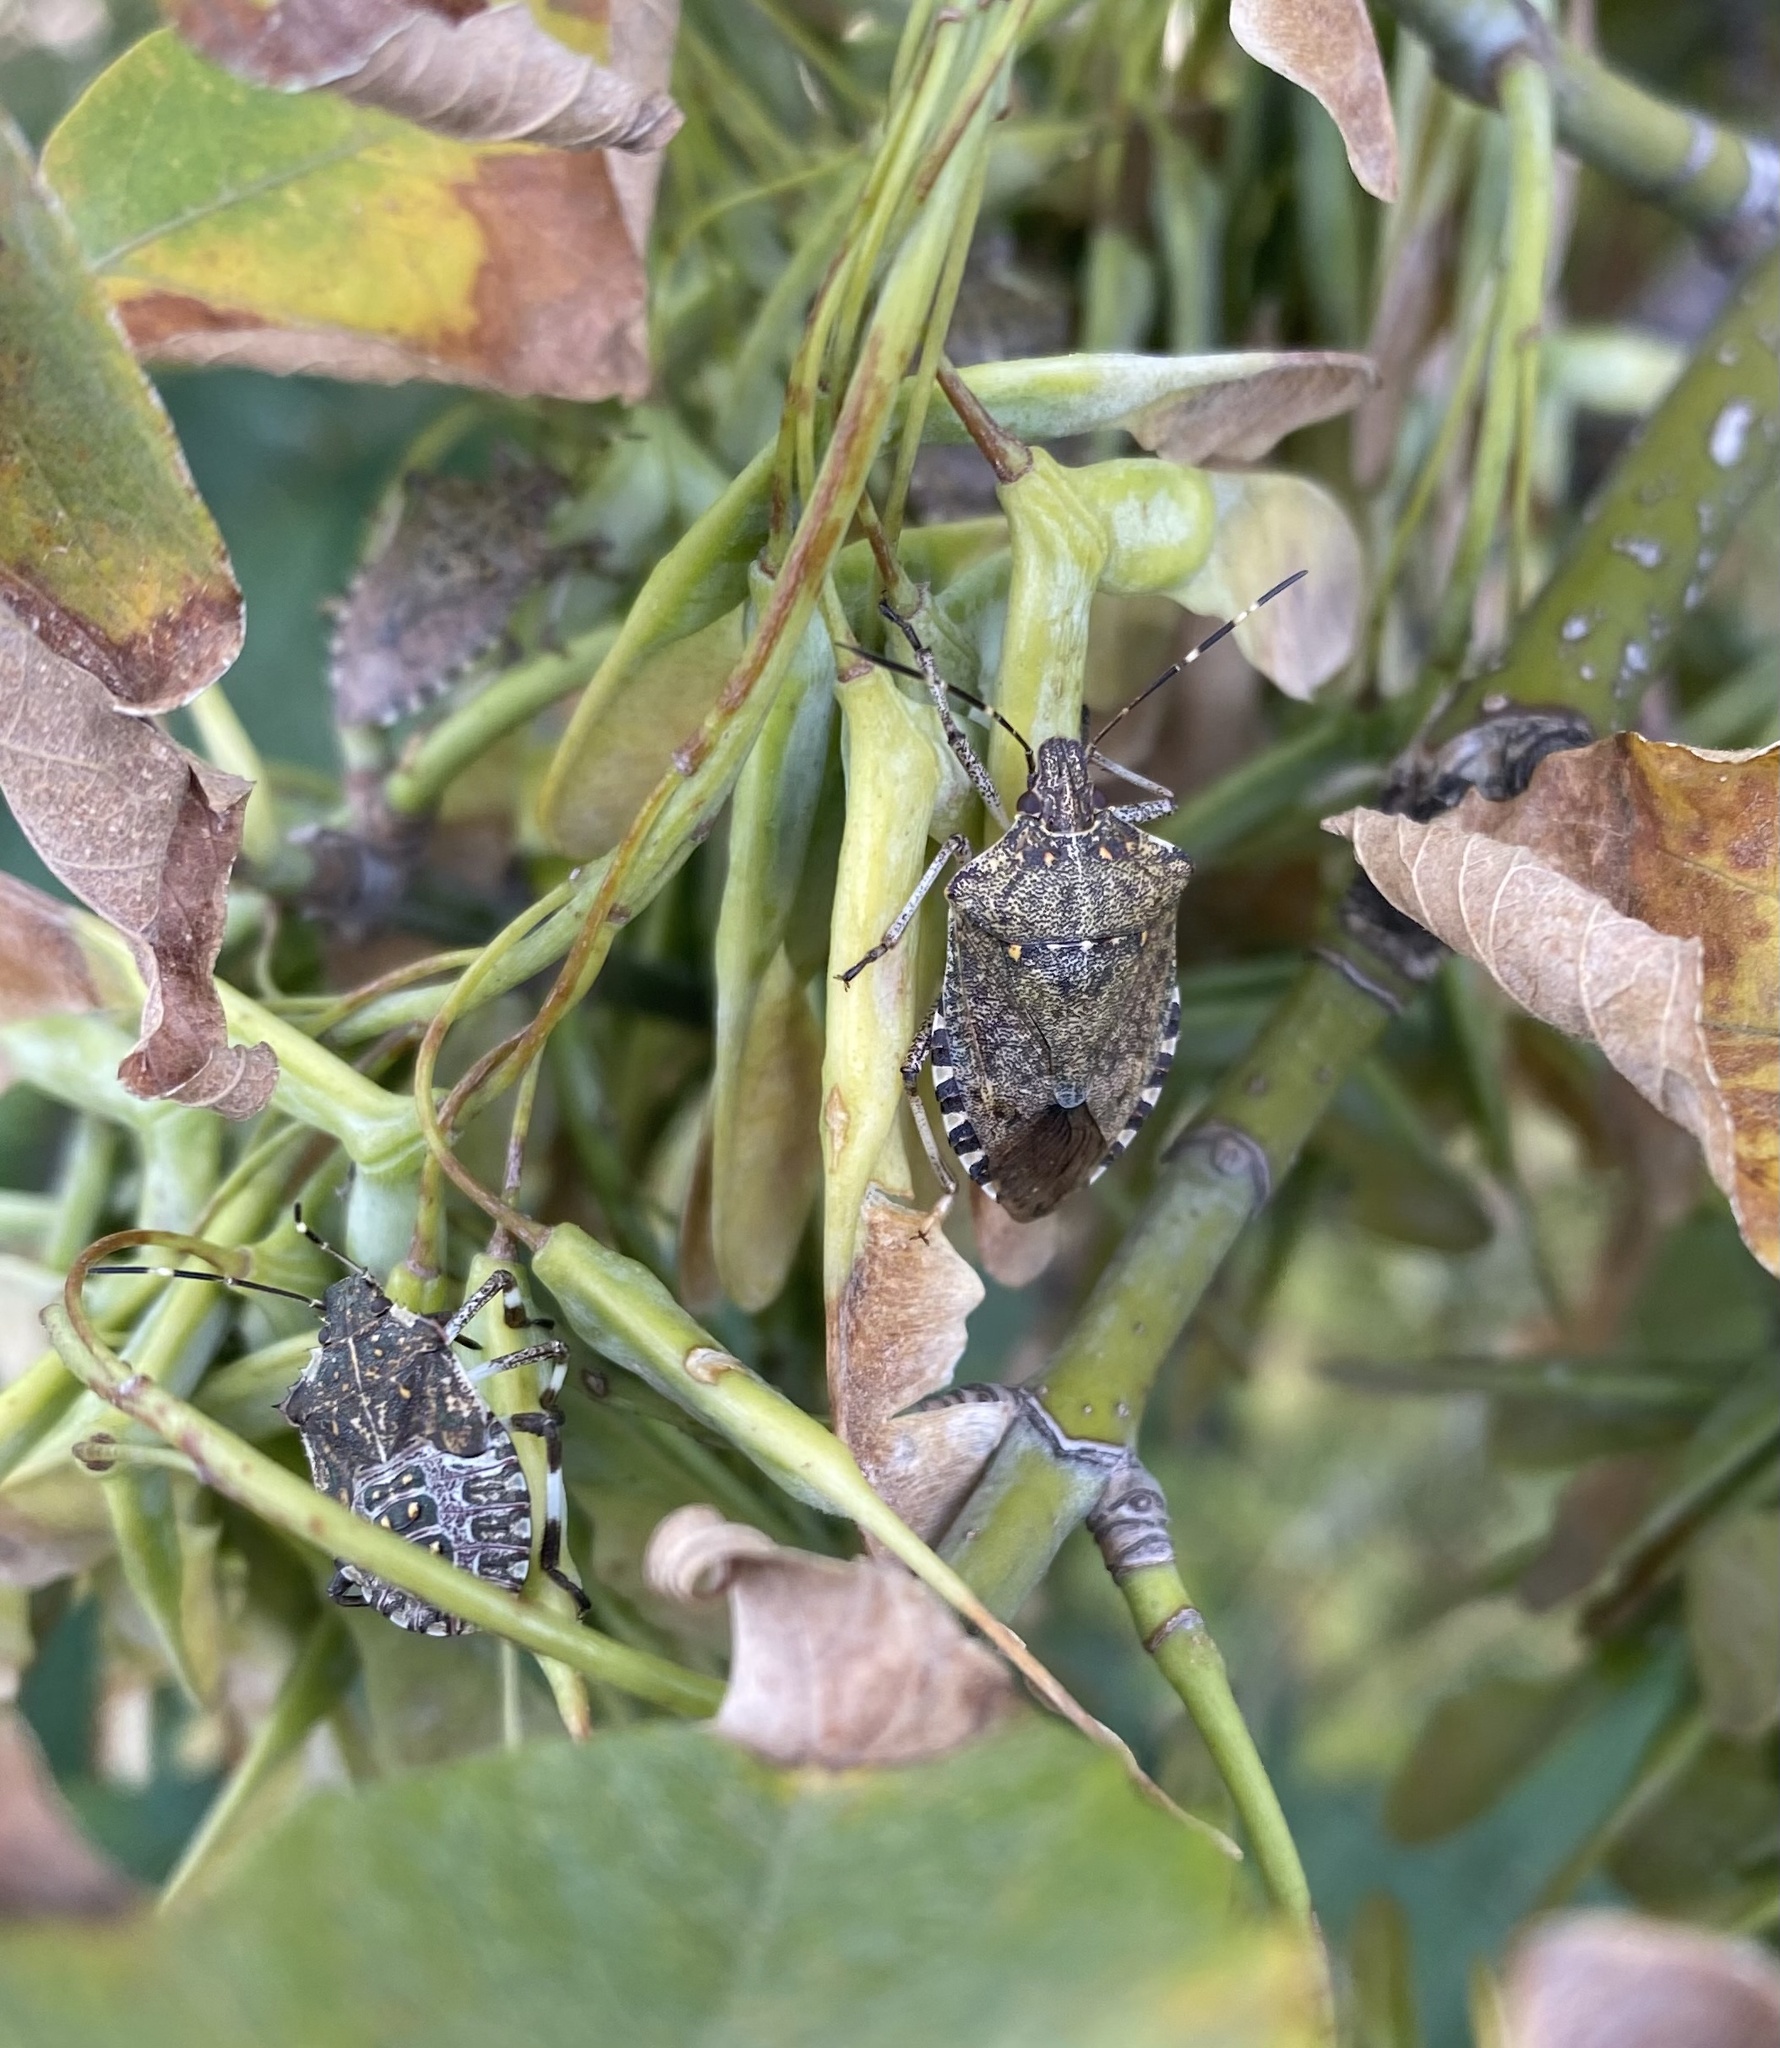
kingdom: Animalia
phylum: Arthropoda
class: Insecta
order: Hemiptera
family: Pentatomidae
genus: Halyomorpha
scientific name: Halyomorpha halys
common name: Brown marmorated stink bug
